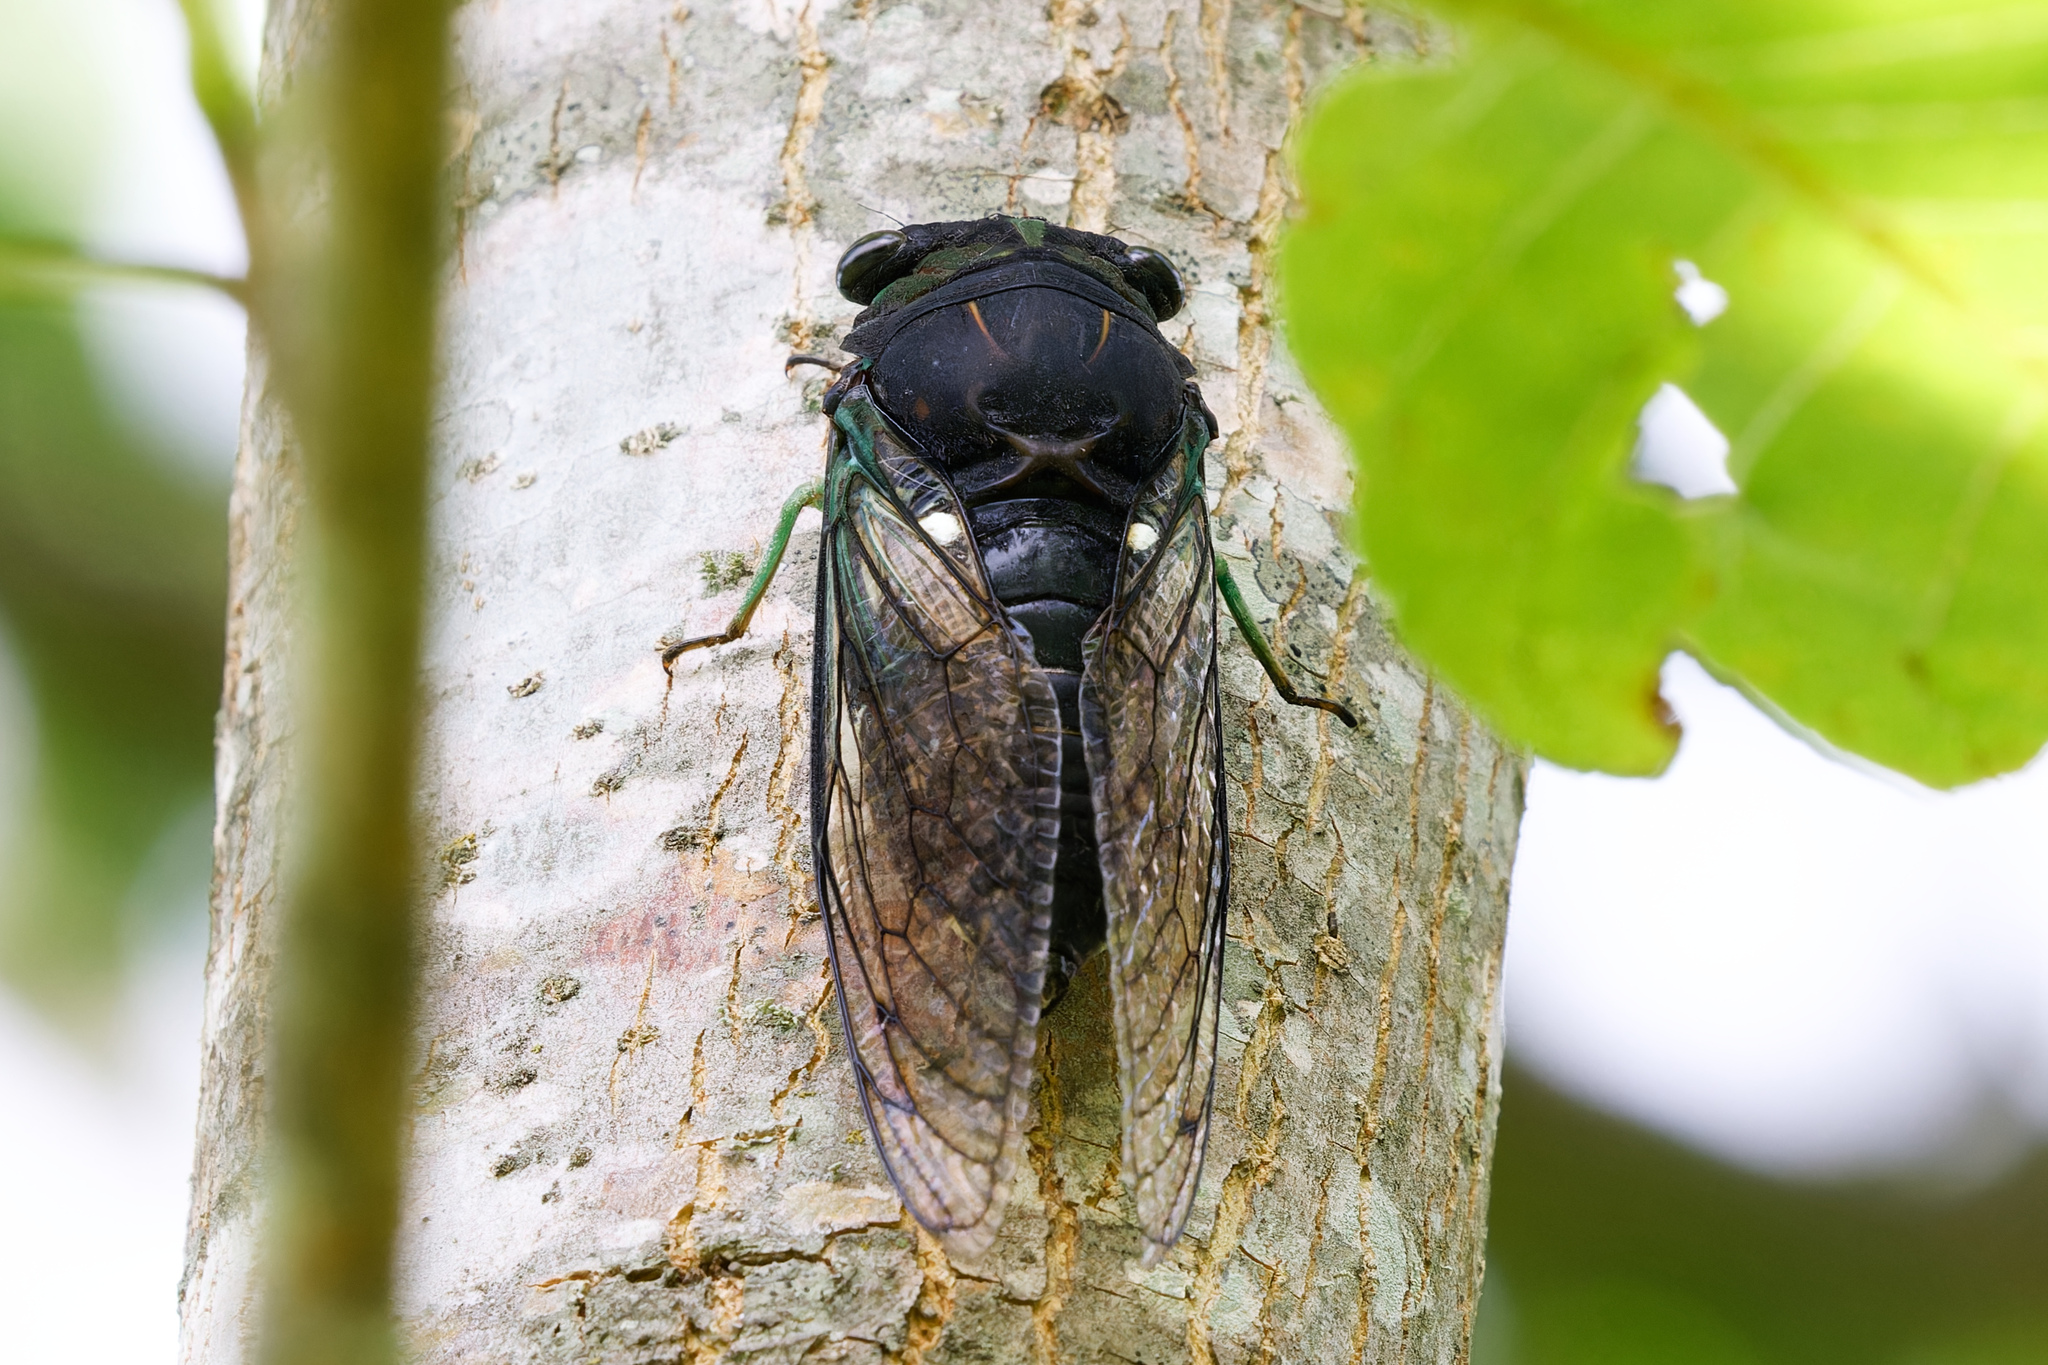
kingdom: Animalia
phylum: Arthropoda
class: Insecta
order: Hemiptera
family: Cicadidae
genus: Neotibicen
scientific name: Neotibicen tibicen
